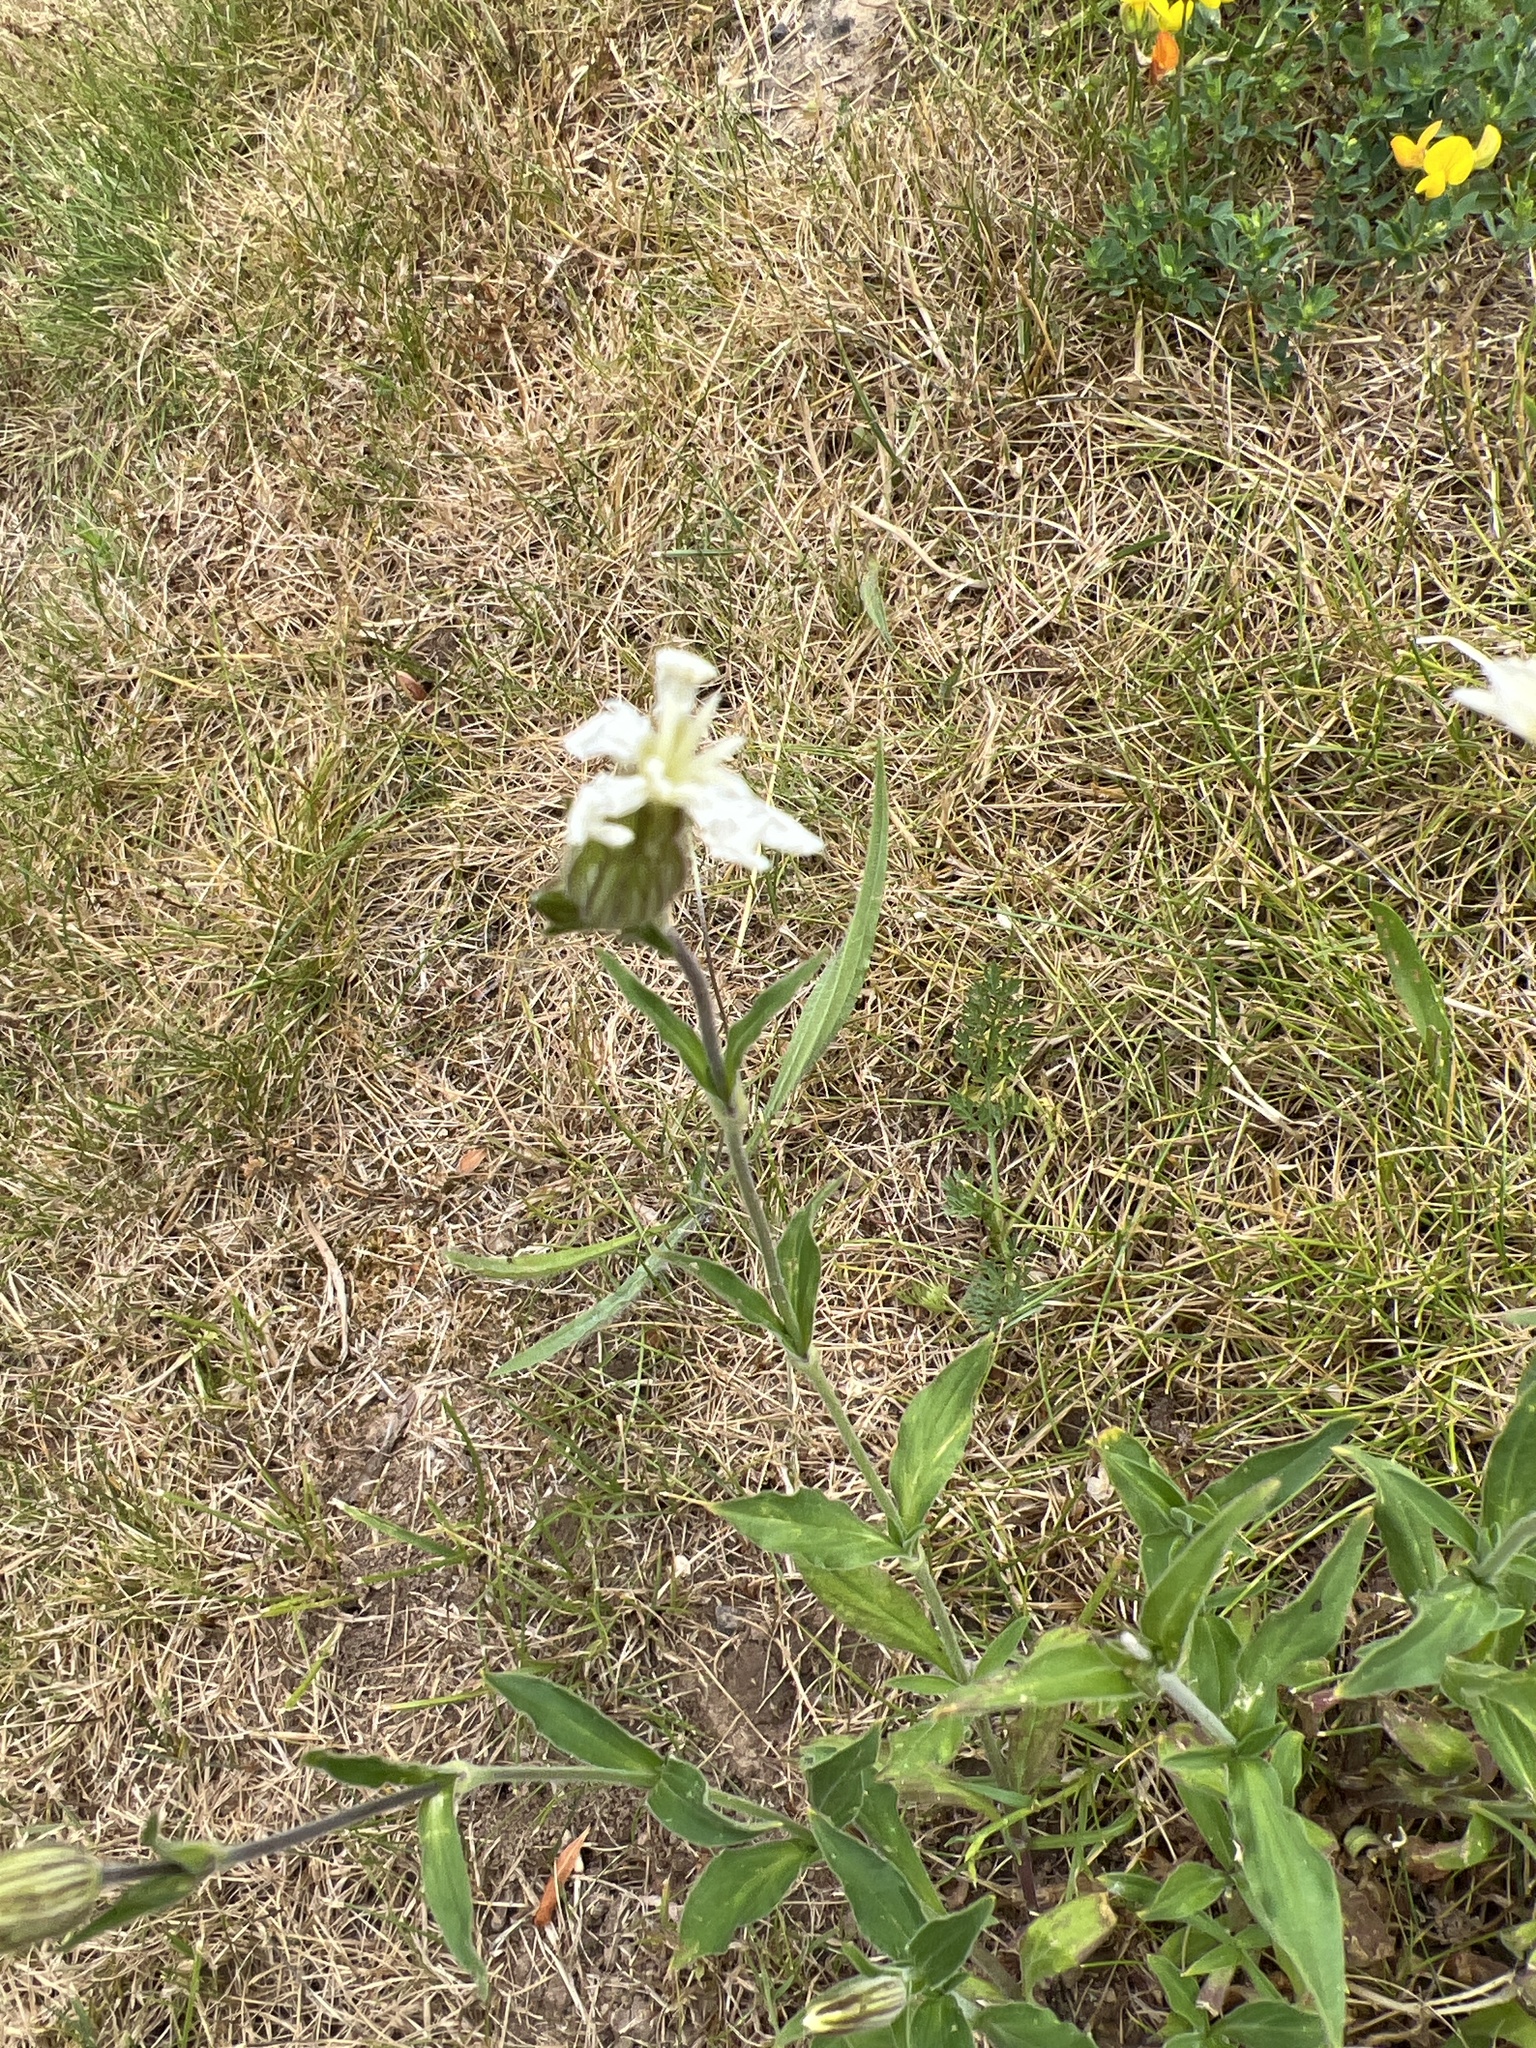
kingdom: Plantae
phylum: Tracheophyta
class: Magnoliopsida
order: Caryophyllales
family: Caryophyllaceae
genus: Silene
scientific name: Silene latifolia
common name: White campion
